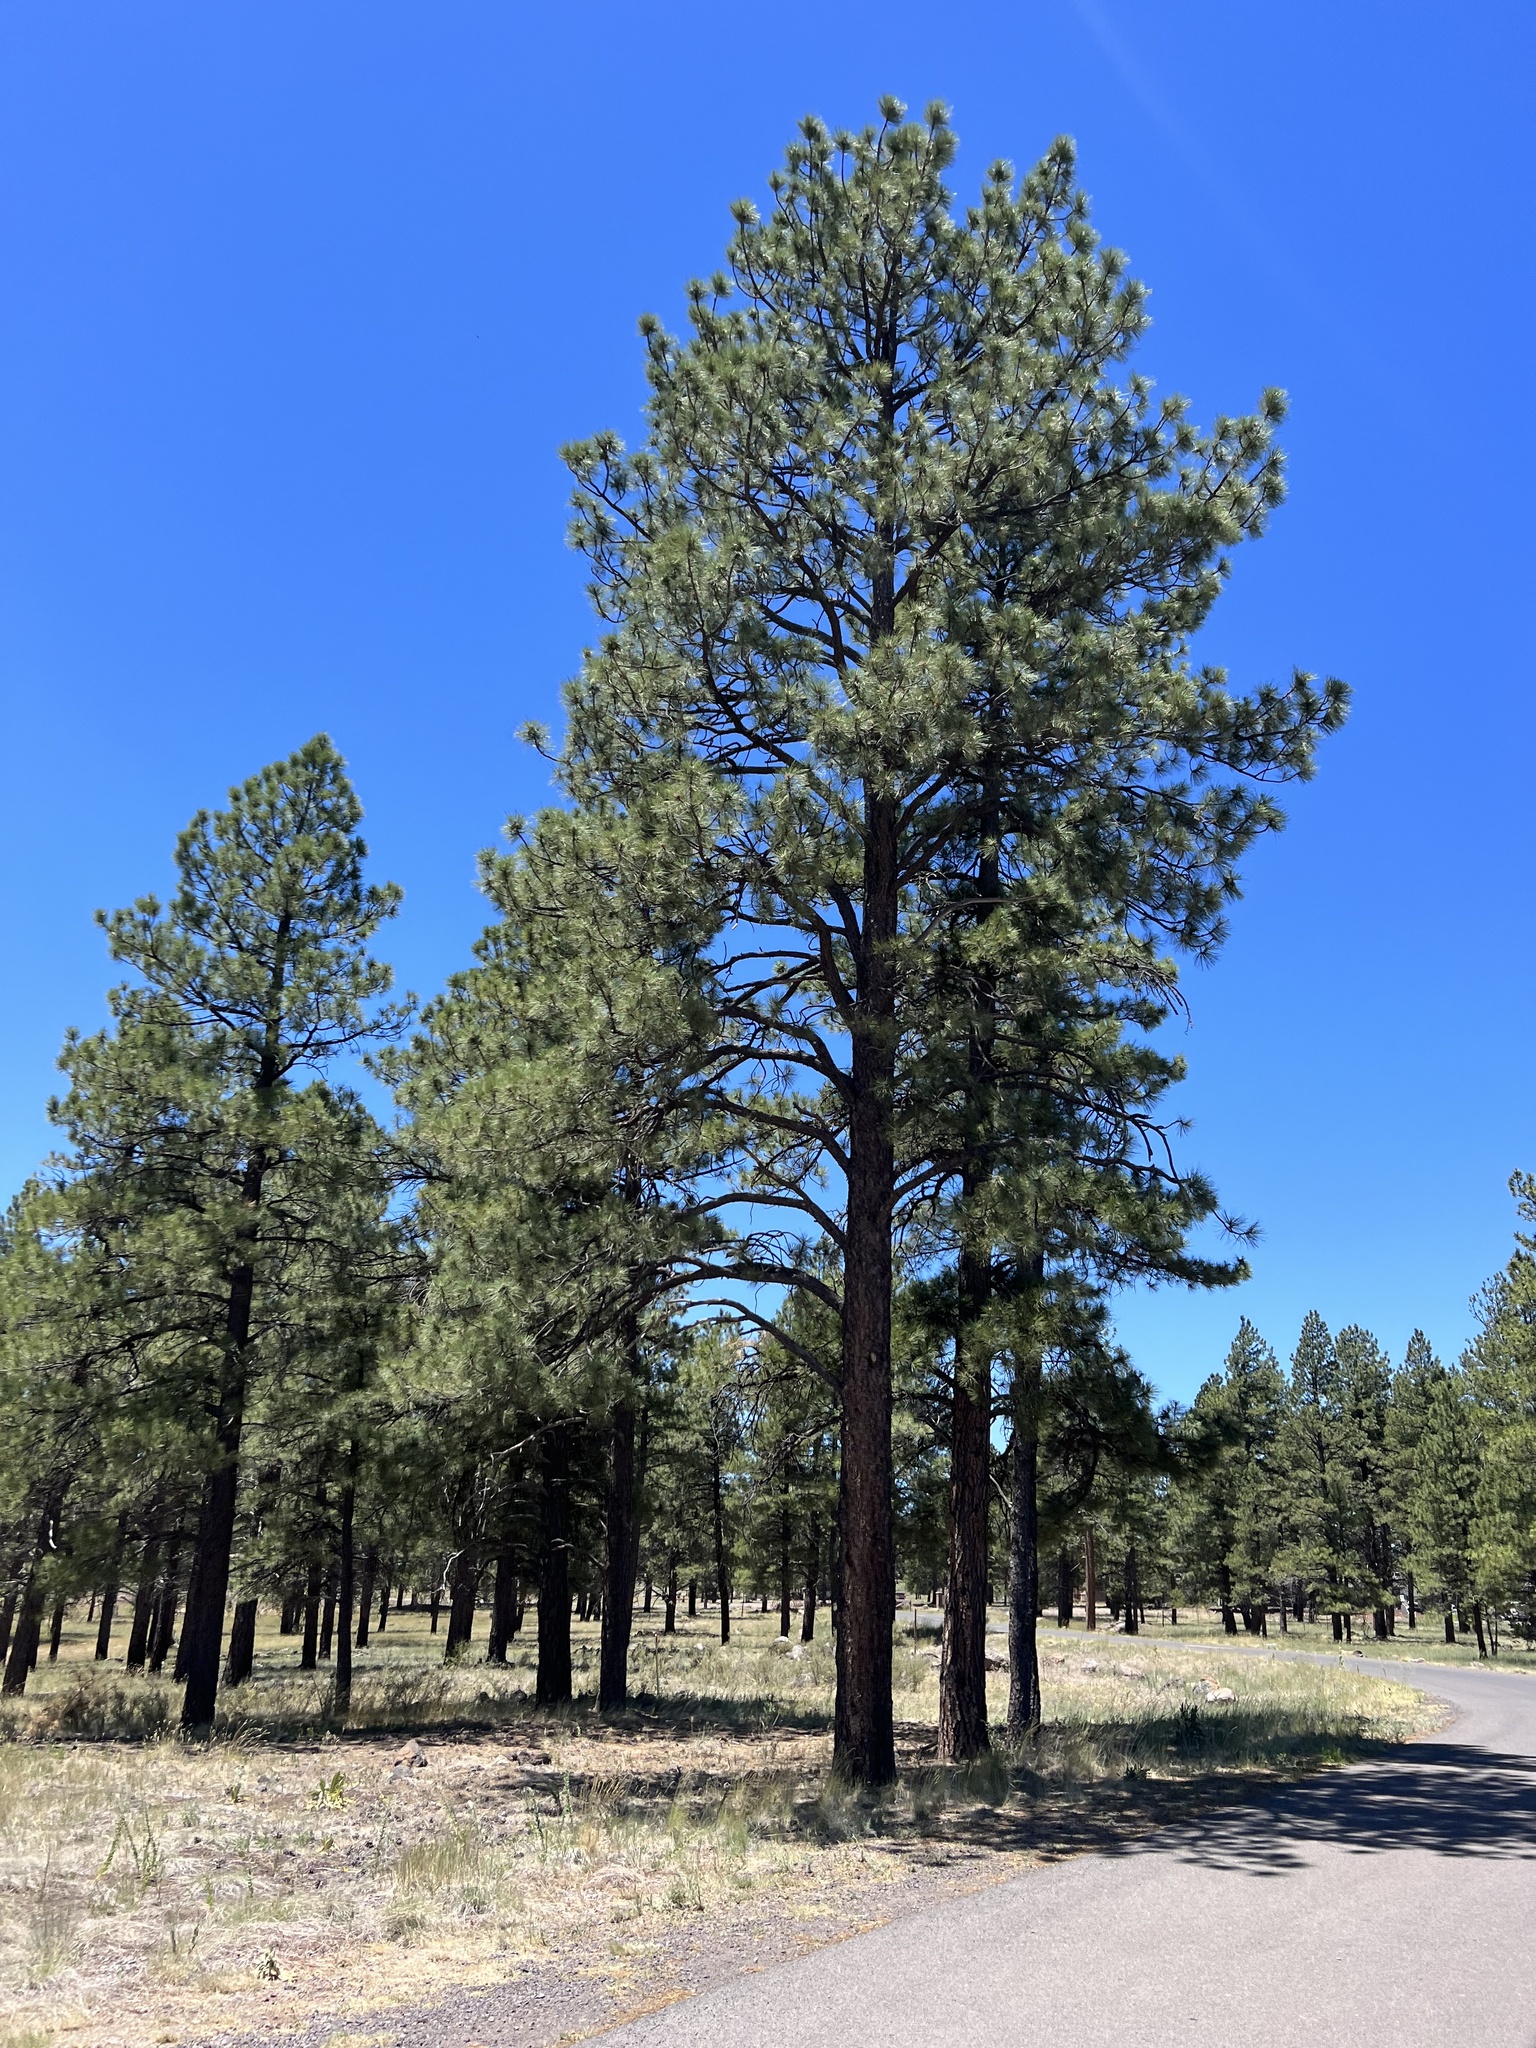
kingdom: Plantae
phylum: Tracheophyta
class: Pinopsida
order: Pinales
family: Pinaceae
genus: Pinus
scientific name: Pinus ponderosa
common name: Western yellow-pine
